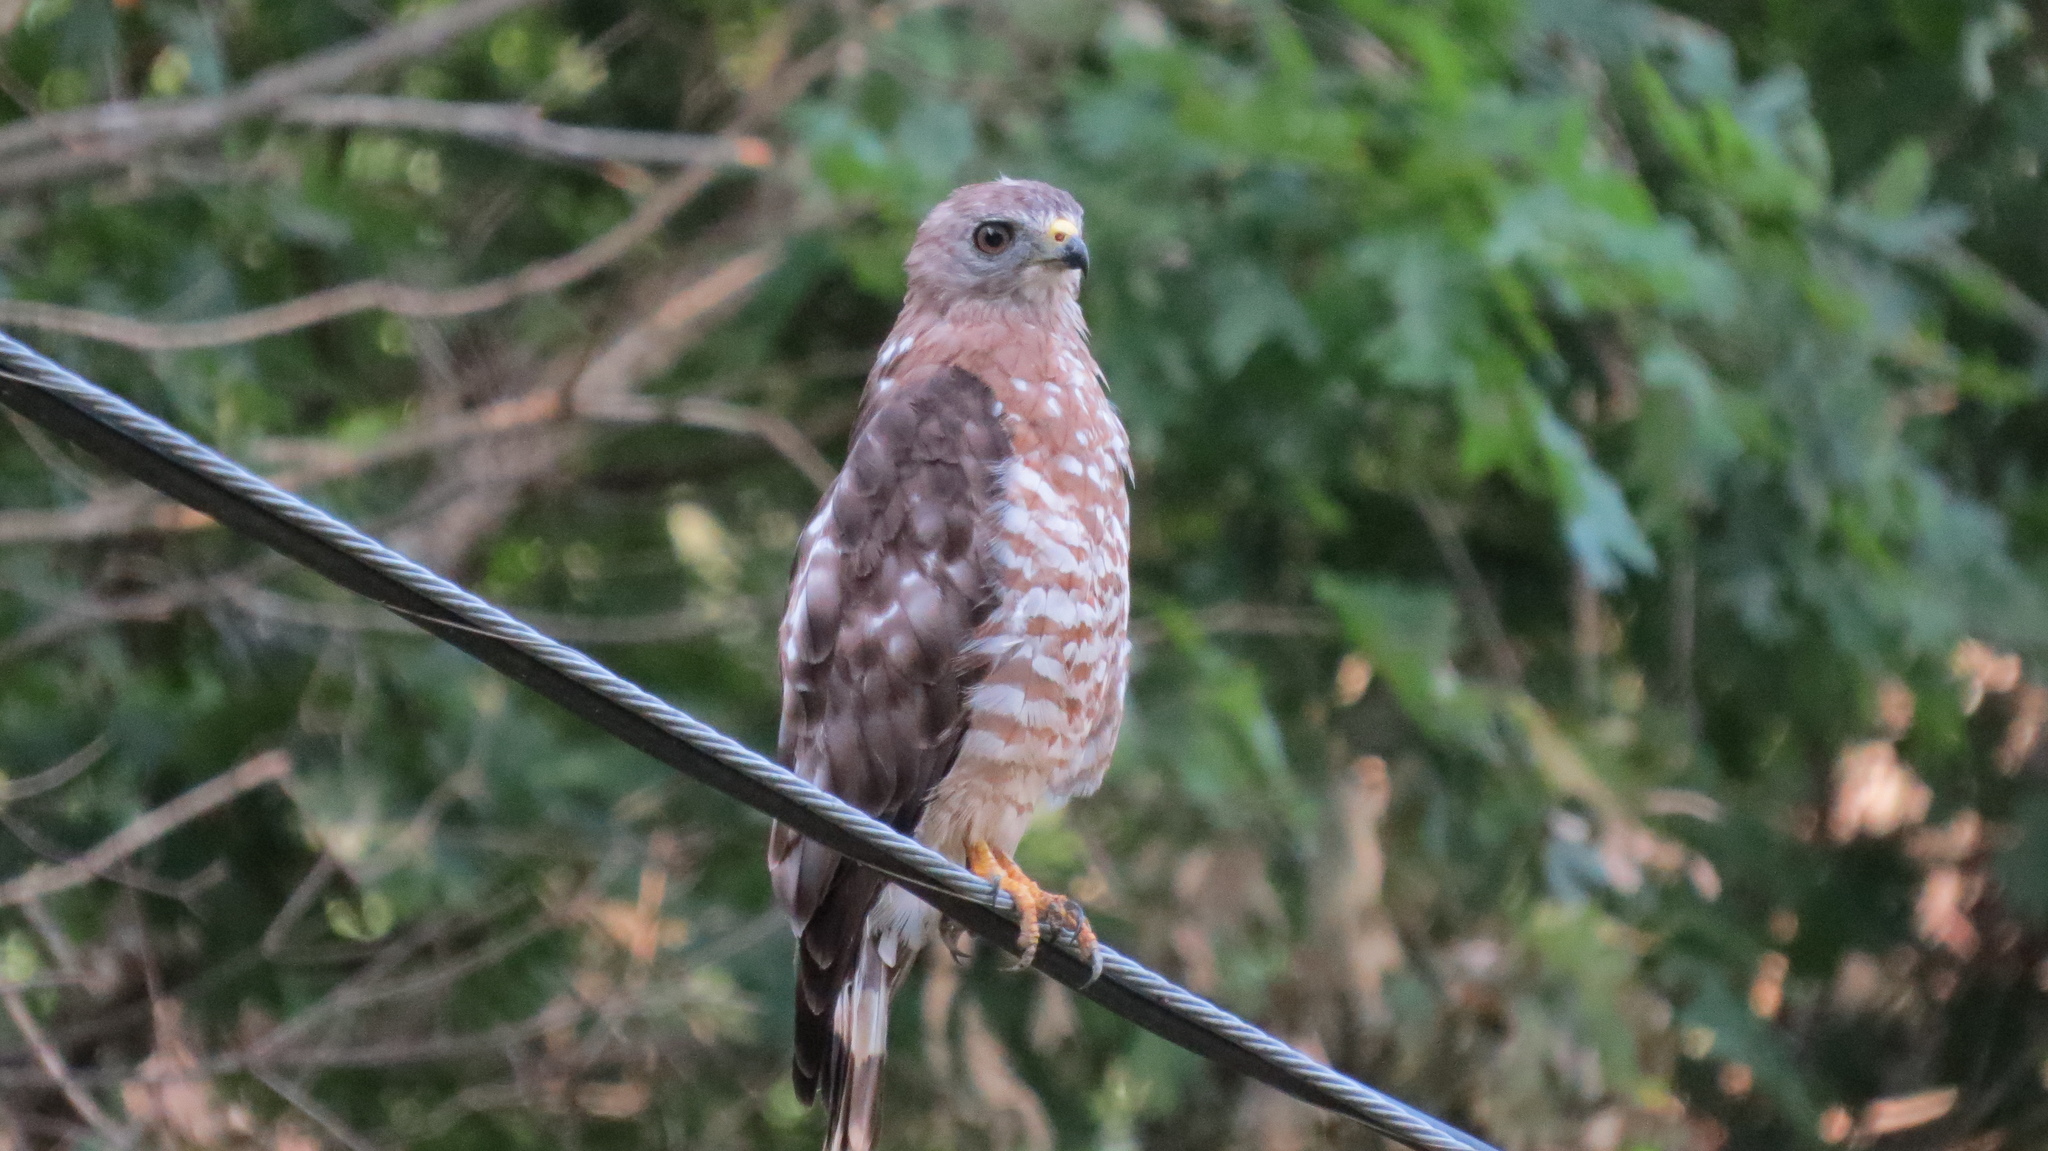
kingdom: Animalia
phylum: Chordata
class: Aves
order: Accipitriformes
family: Accipitridae
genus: Buteo
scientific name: Buteo platypterus
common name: Broad-winged hawk
